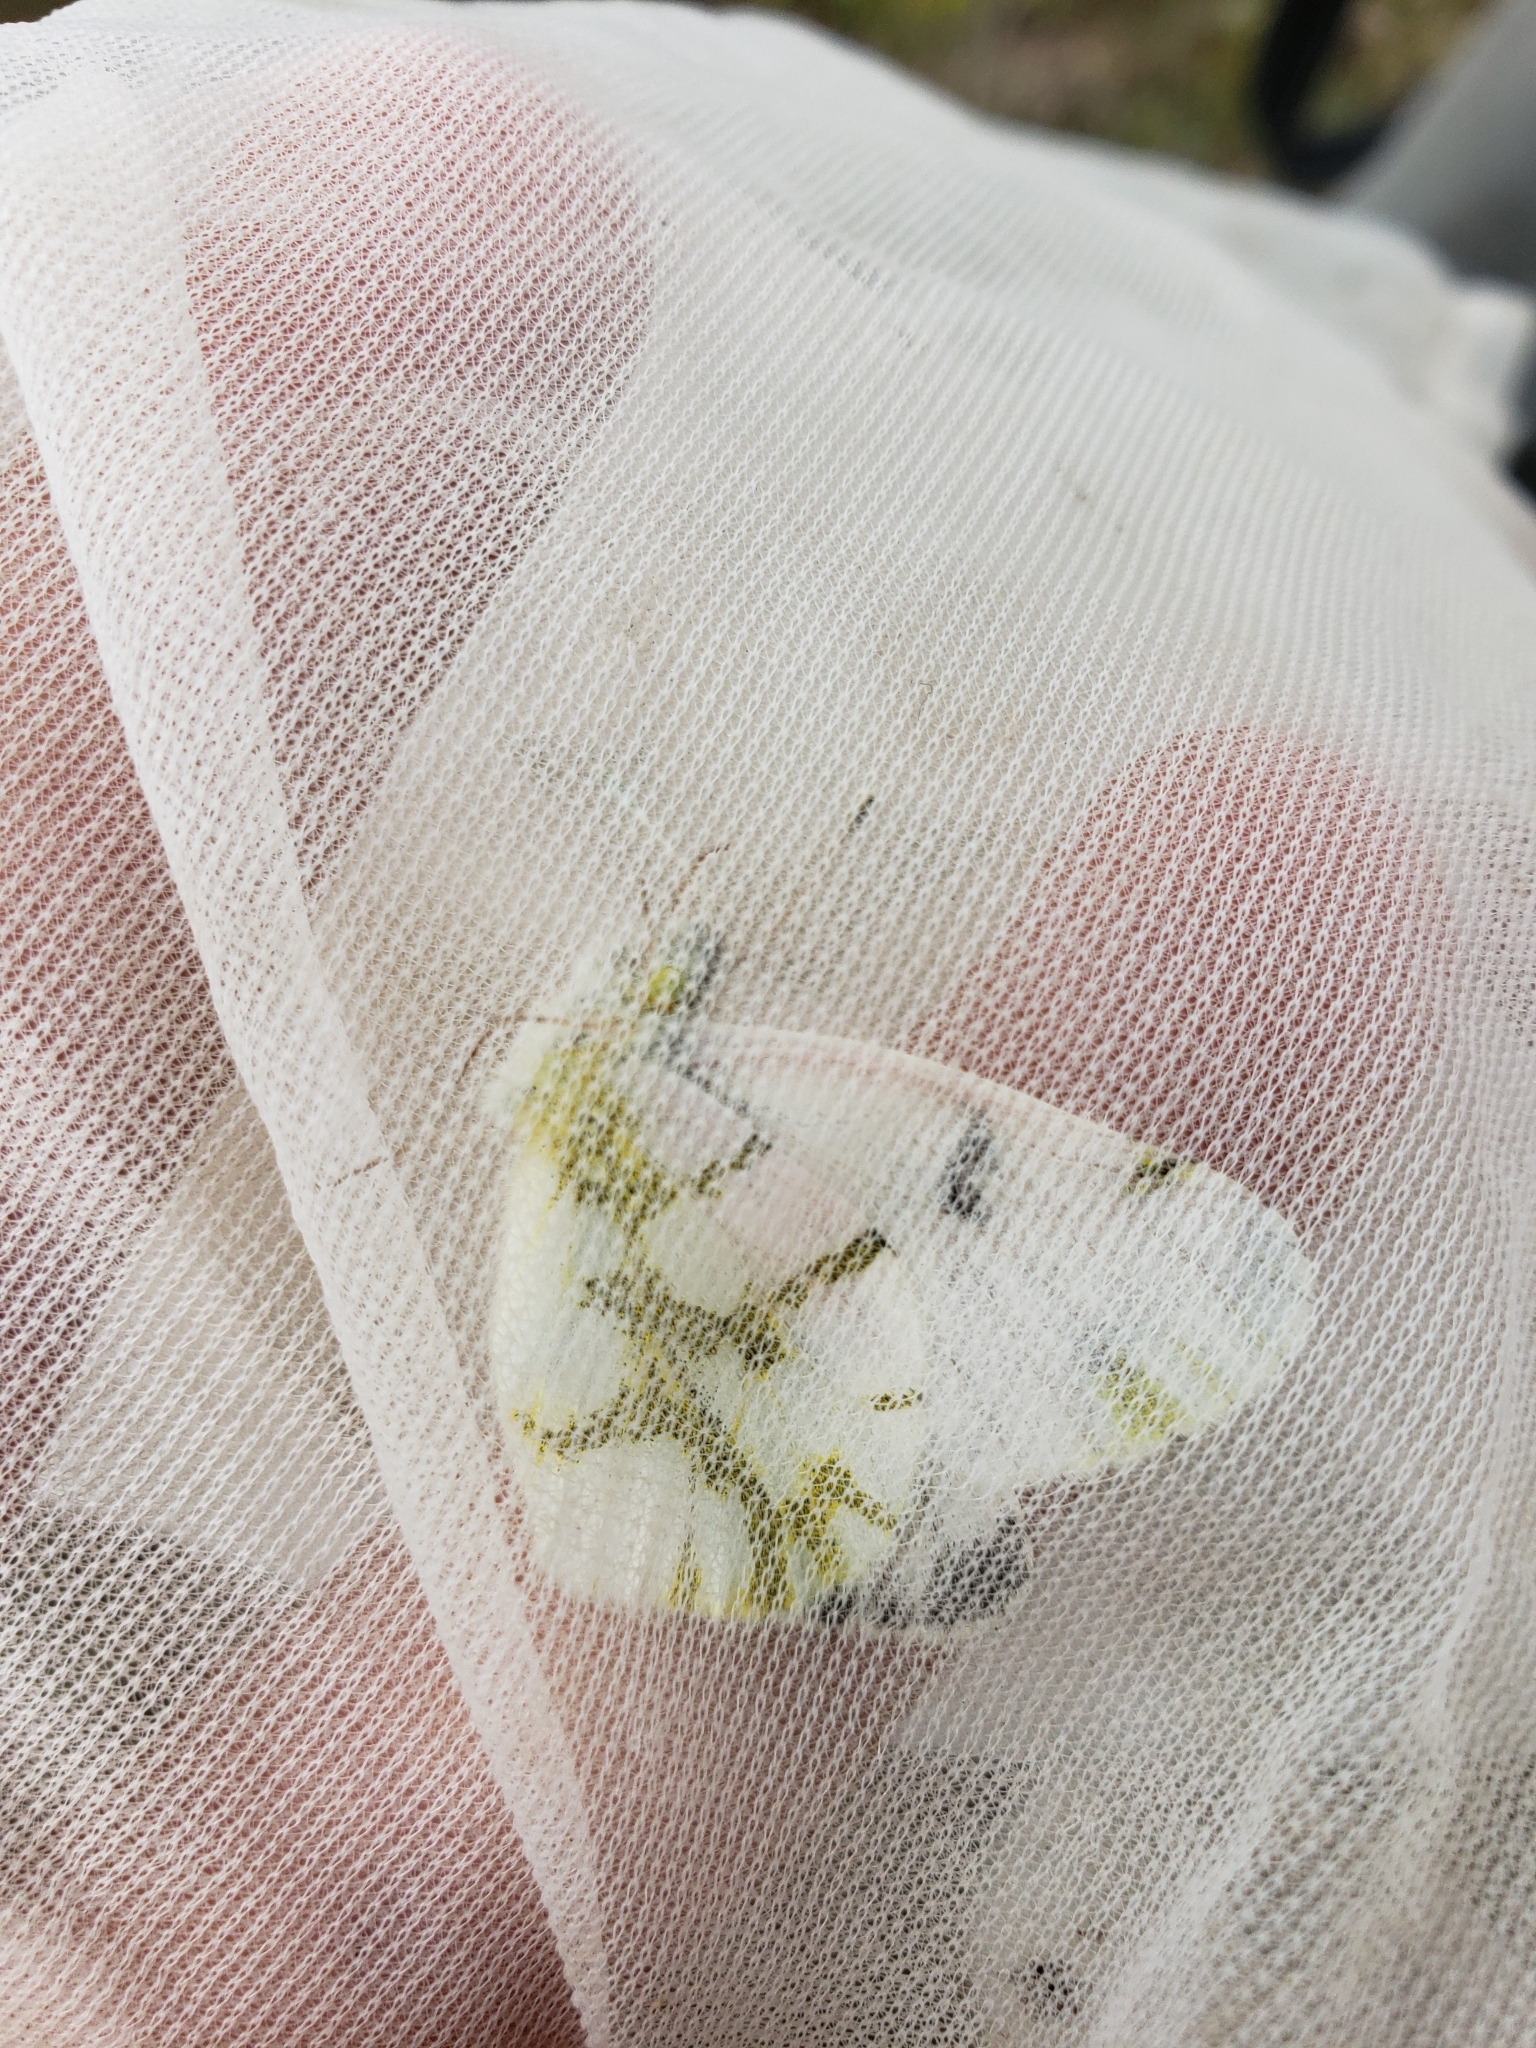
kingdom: Animalia
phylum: Arthropoda
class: Insecta
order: Lepidoptera
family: Pieridae
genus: Euchloe
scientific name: Euchloe olympia
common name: Olympia
